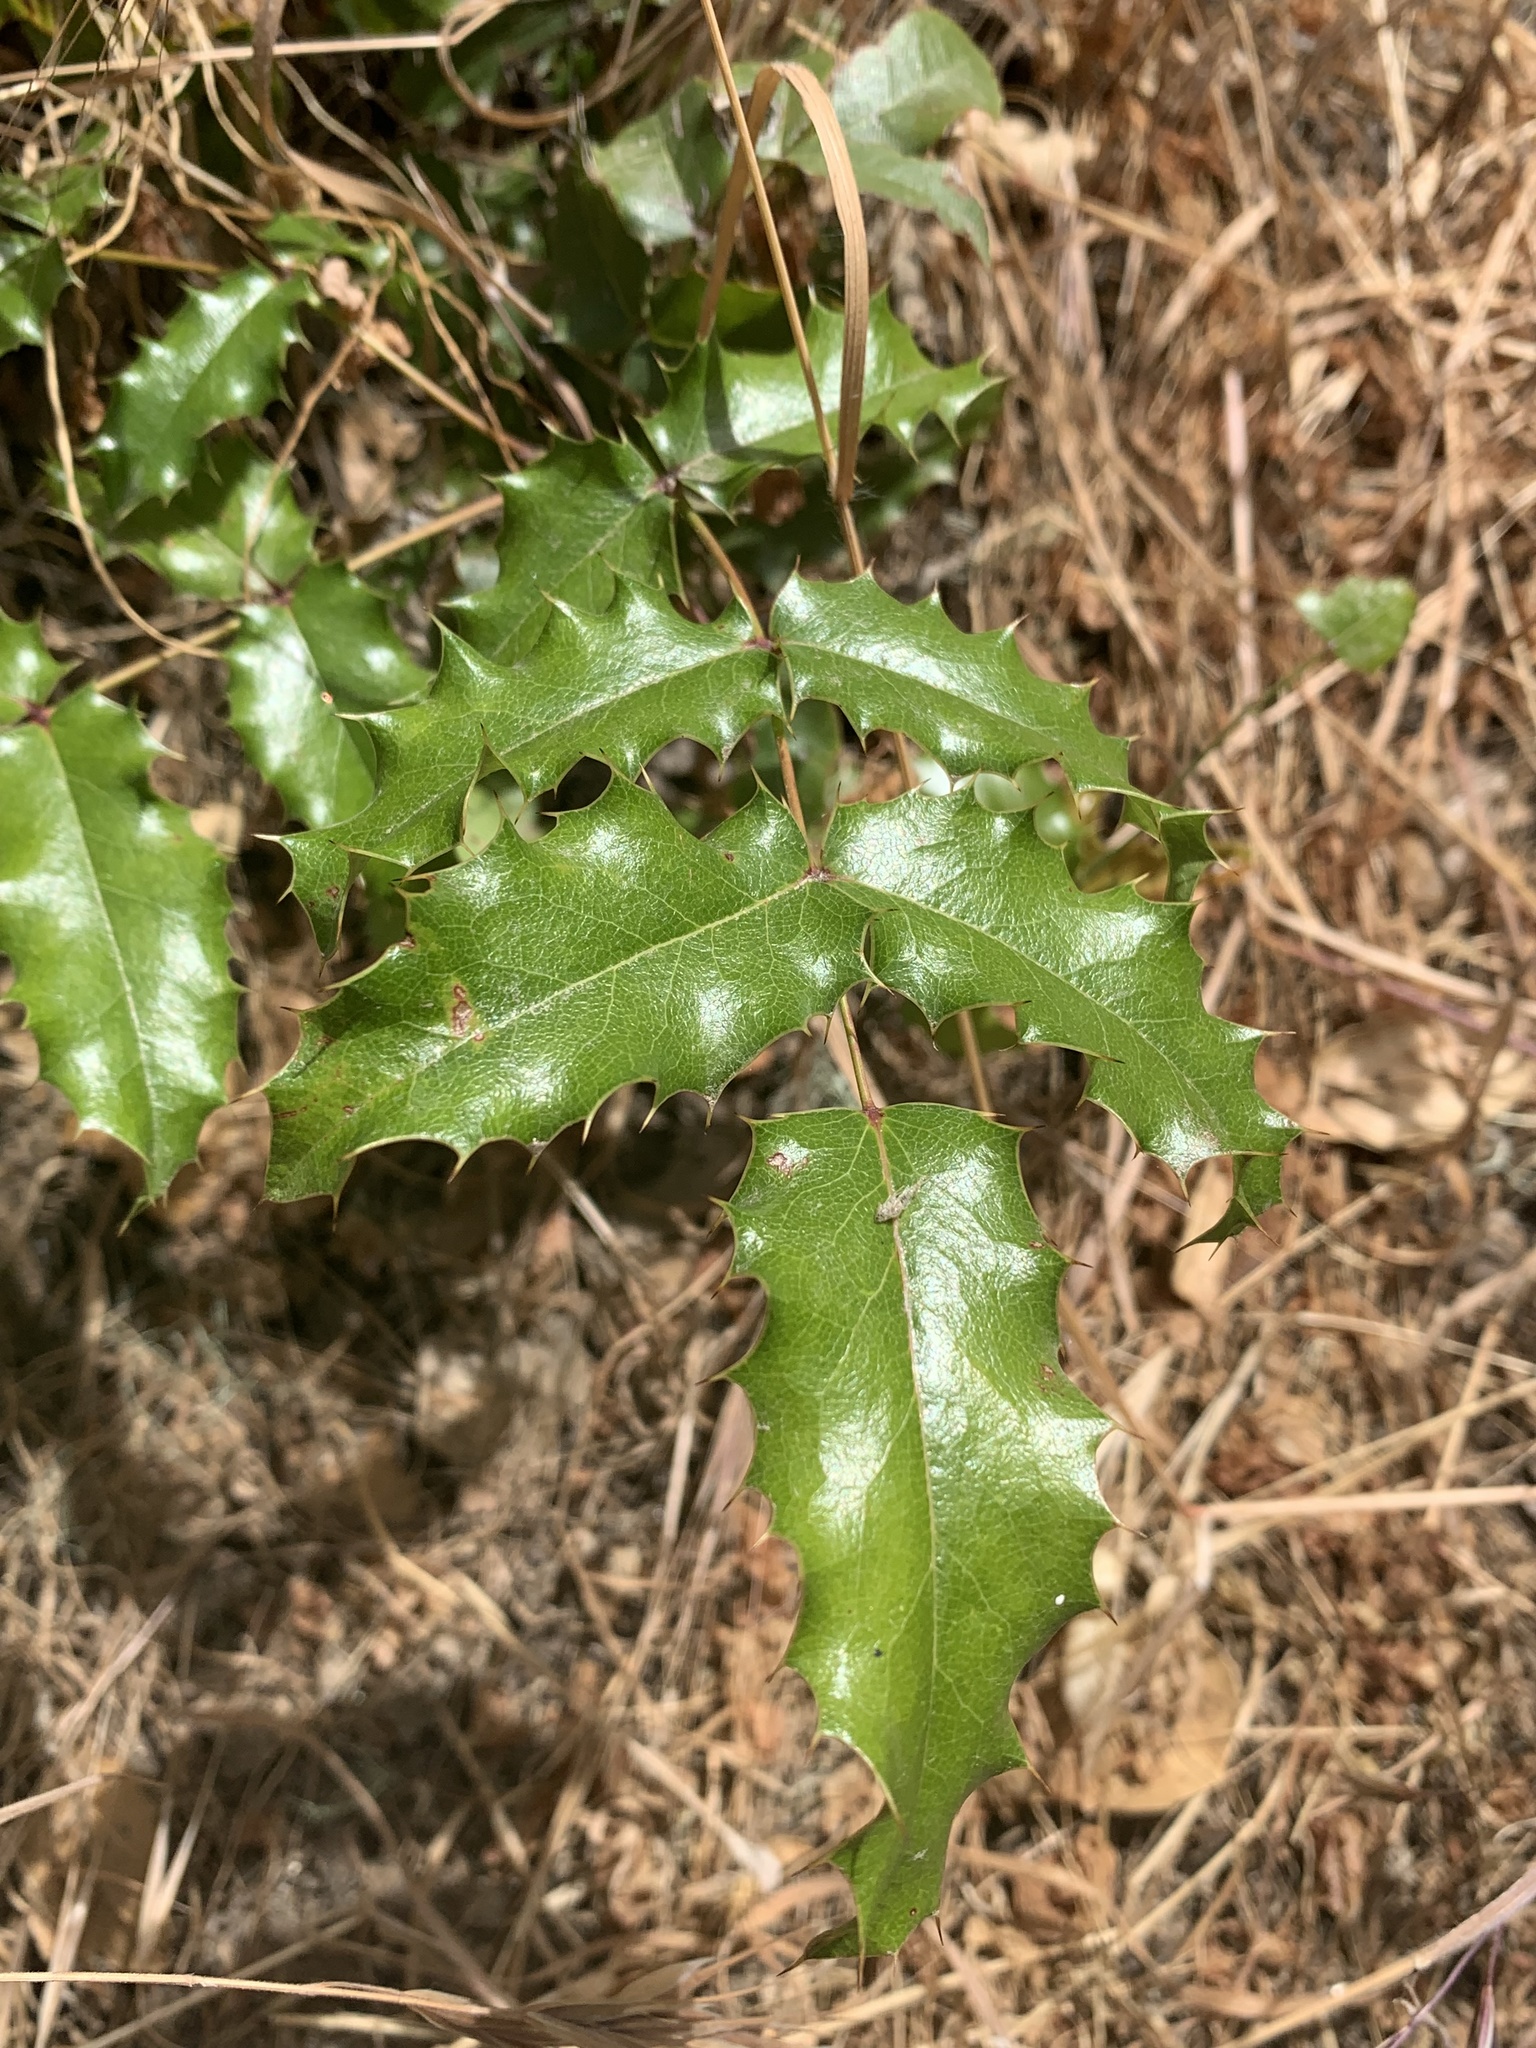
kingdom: Plantae
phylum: Tracheophyta
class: Magnoliopsida
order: Ranunculales
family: Berberidaceae
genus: Mahonia
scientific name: Mahonia
